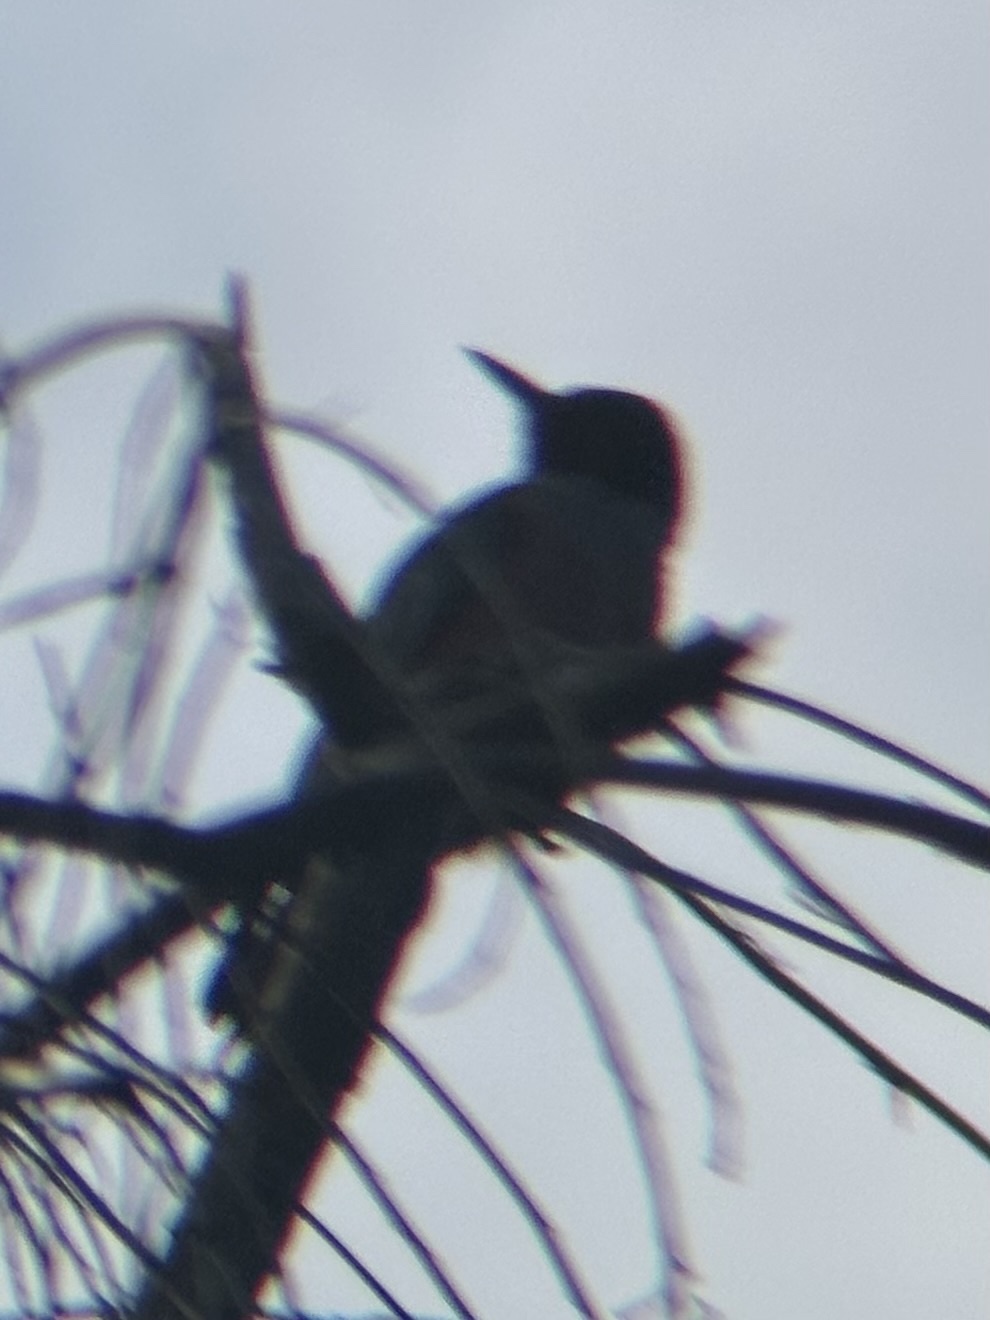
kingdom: Animalia
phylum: Chordata
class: Aves
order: Piciformes
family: Picidae
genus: Melanerpes
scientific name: Melanerpes lewis
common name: Lewis's woodpecker
